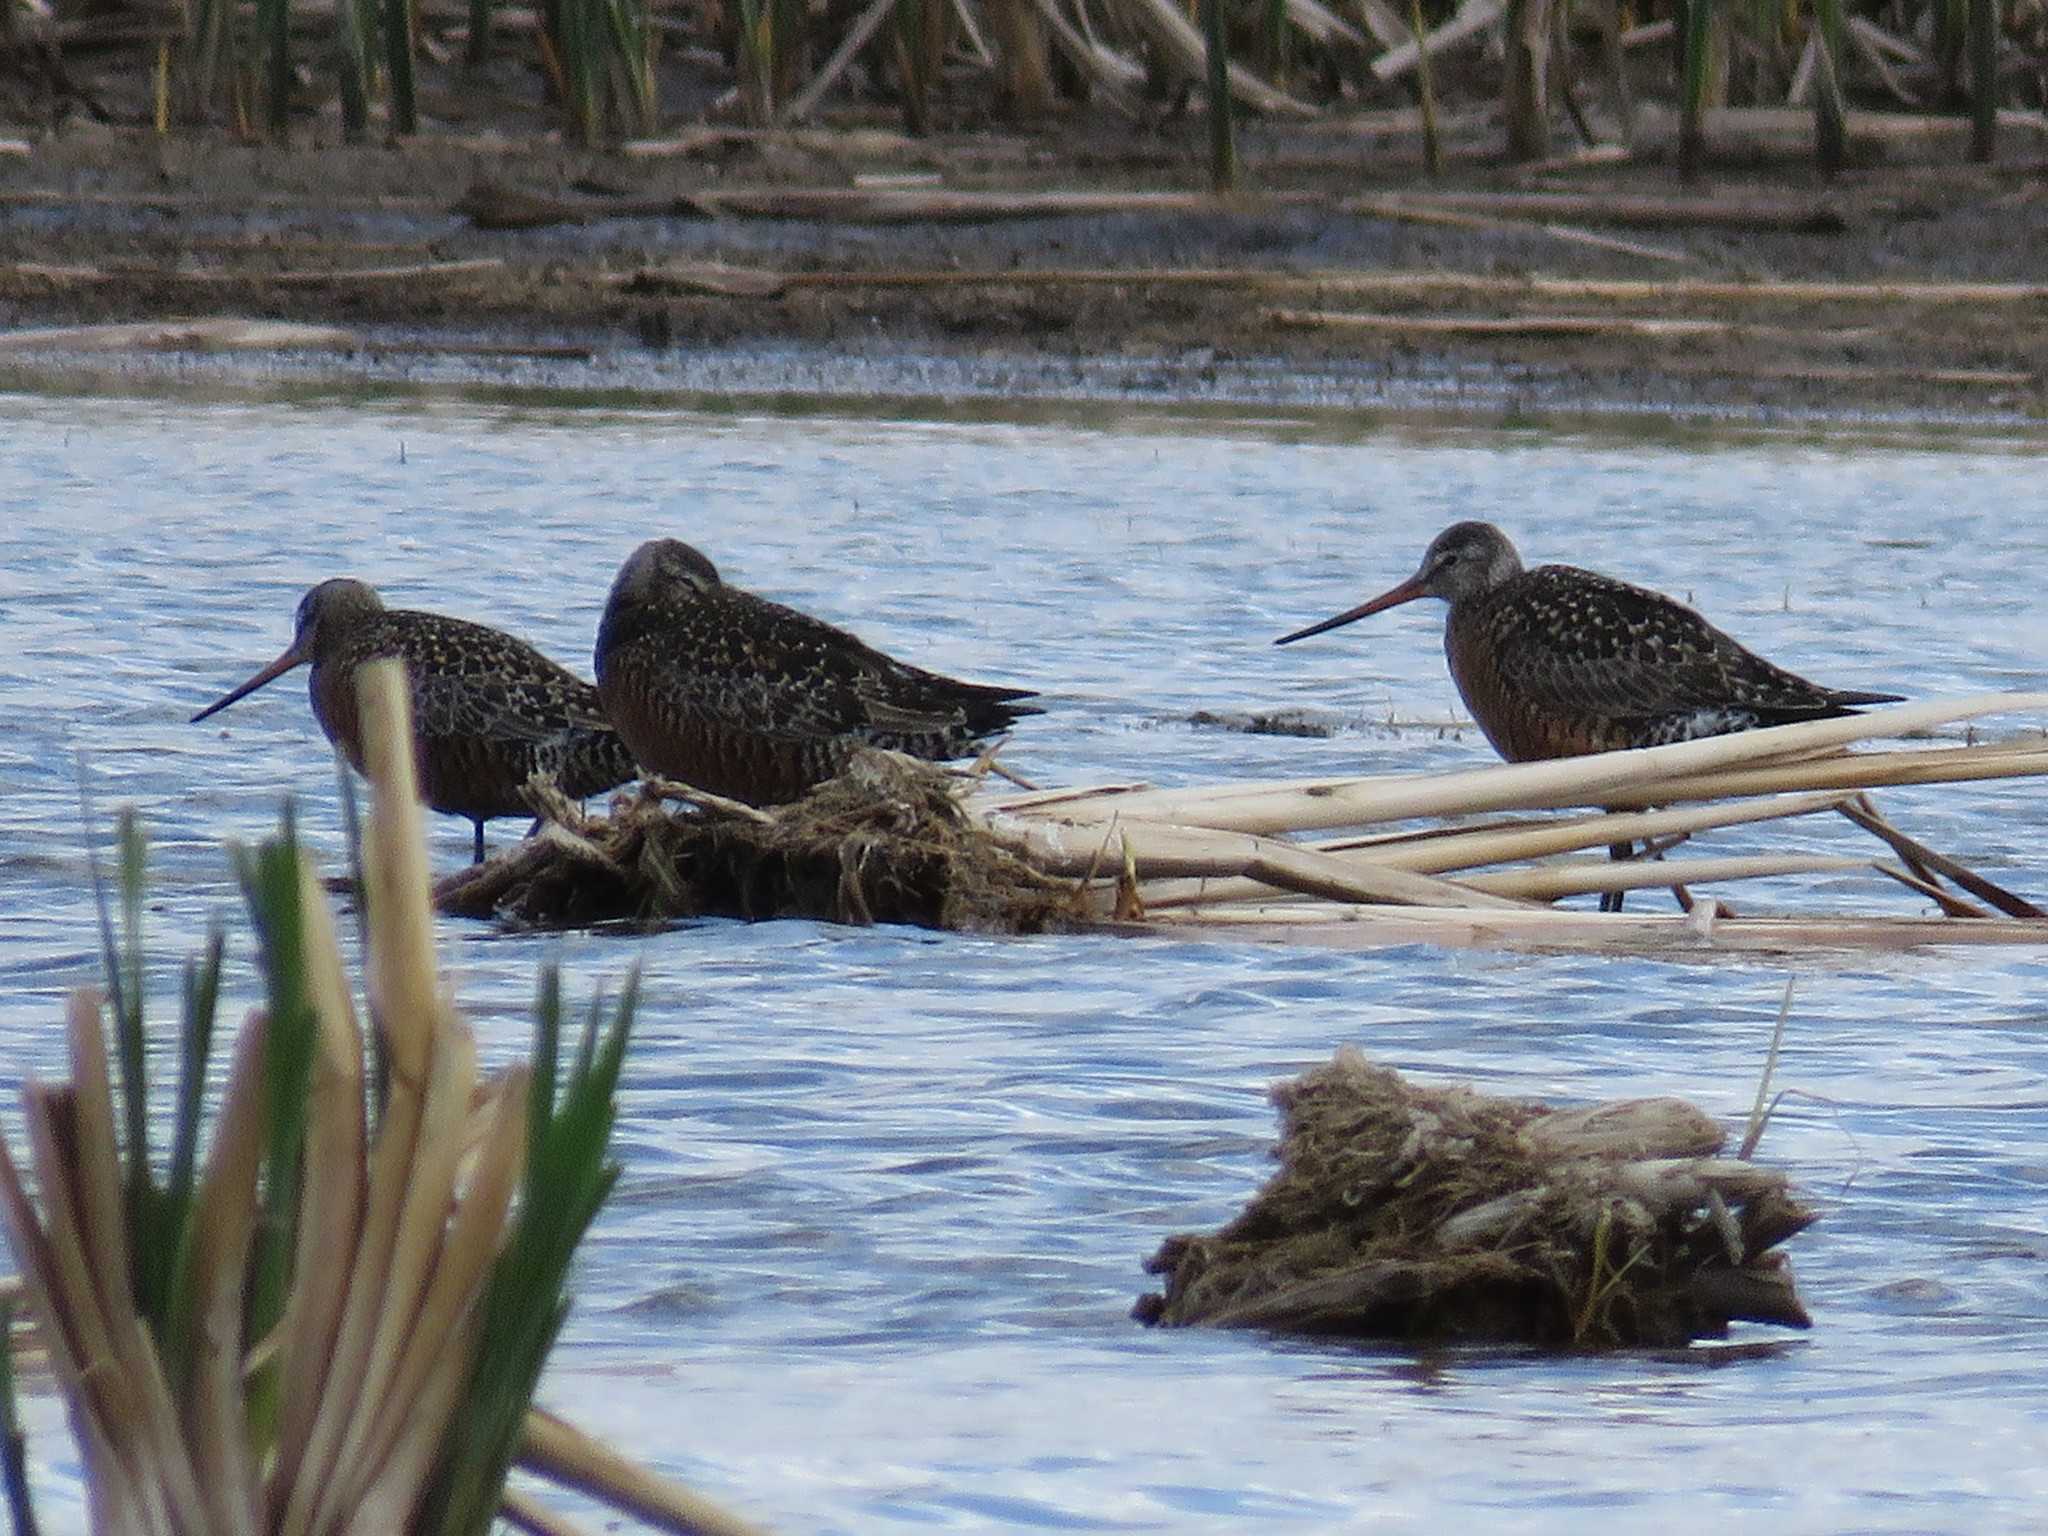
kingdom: Animalia
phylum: Chordata
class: Aves
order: Charadriiformes
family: Scolopacidae
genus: Limosa
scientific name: Limosa haemastica
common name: Hudsonian godwit
